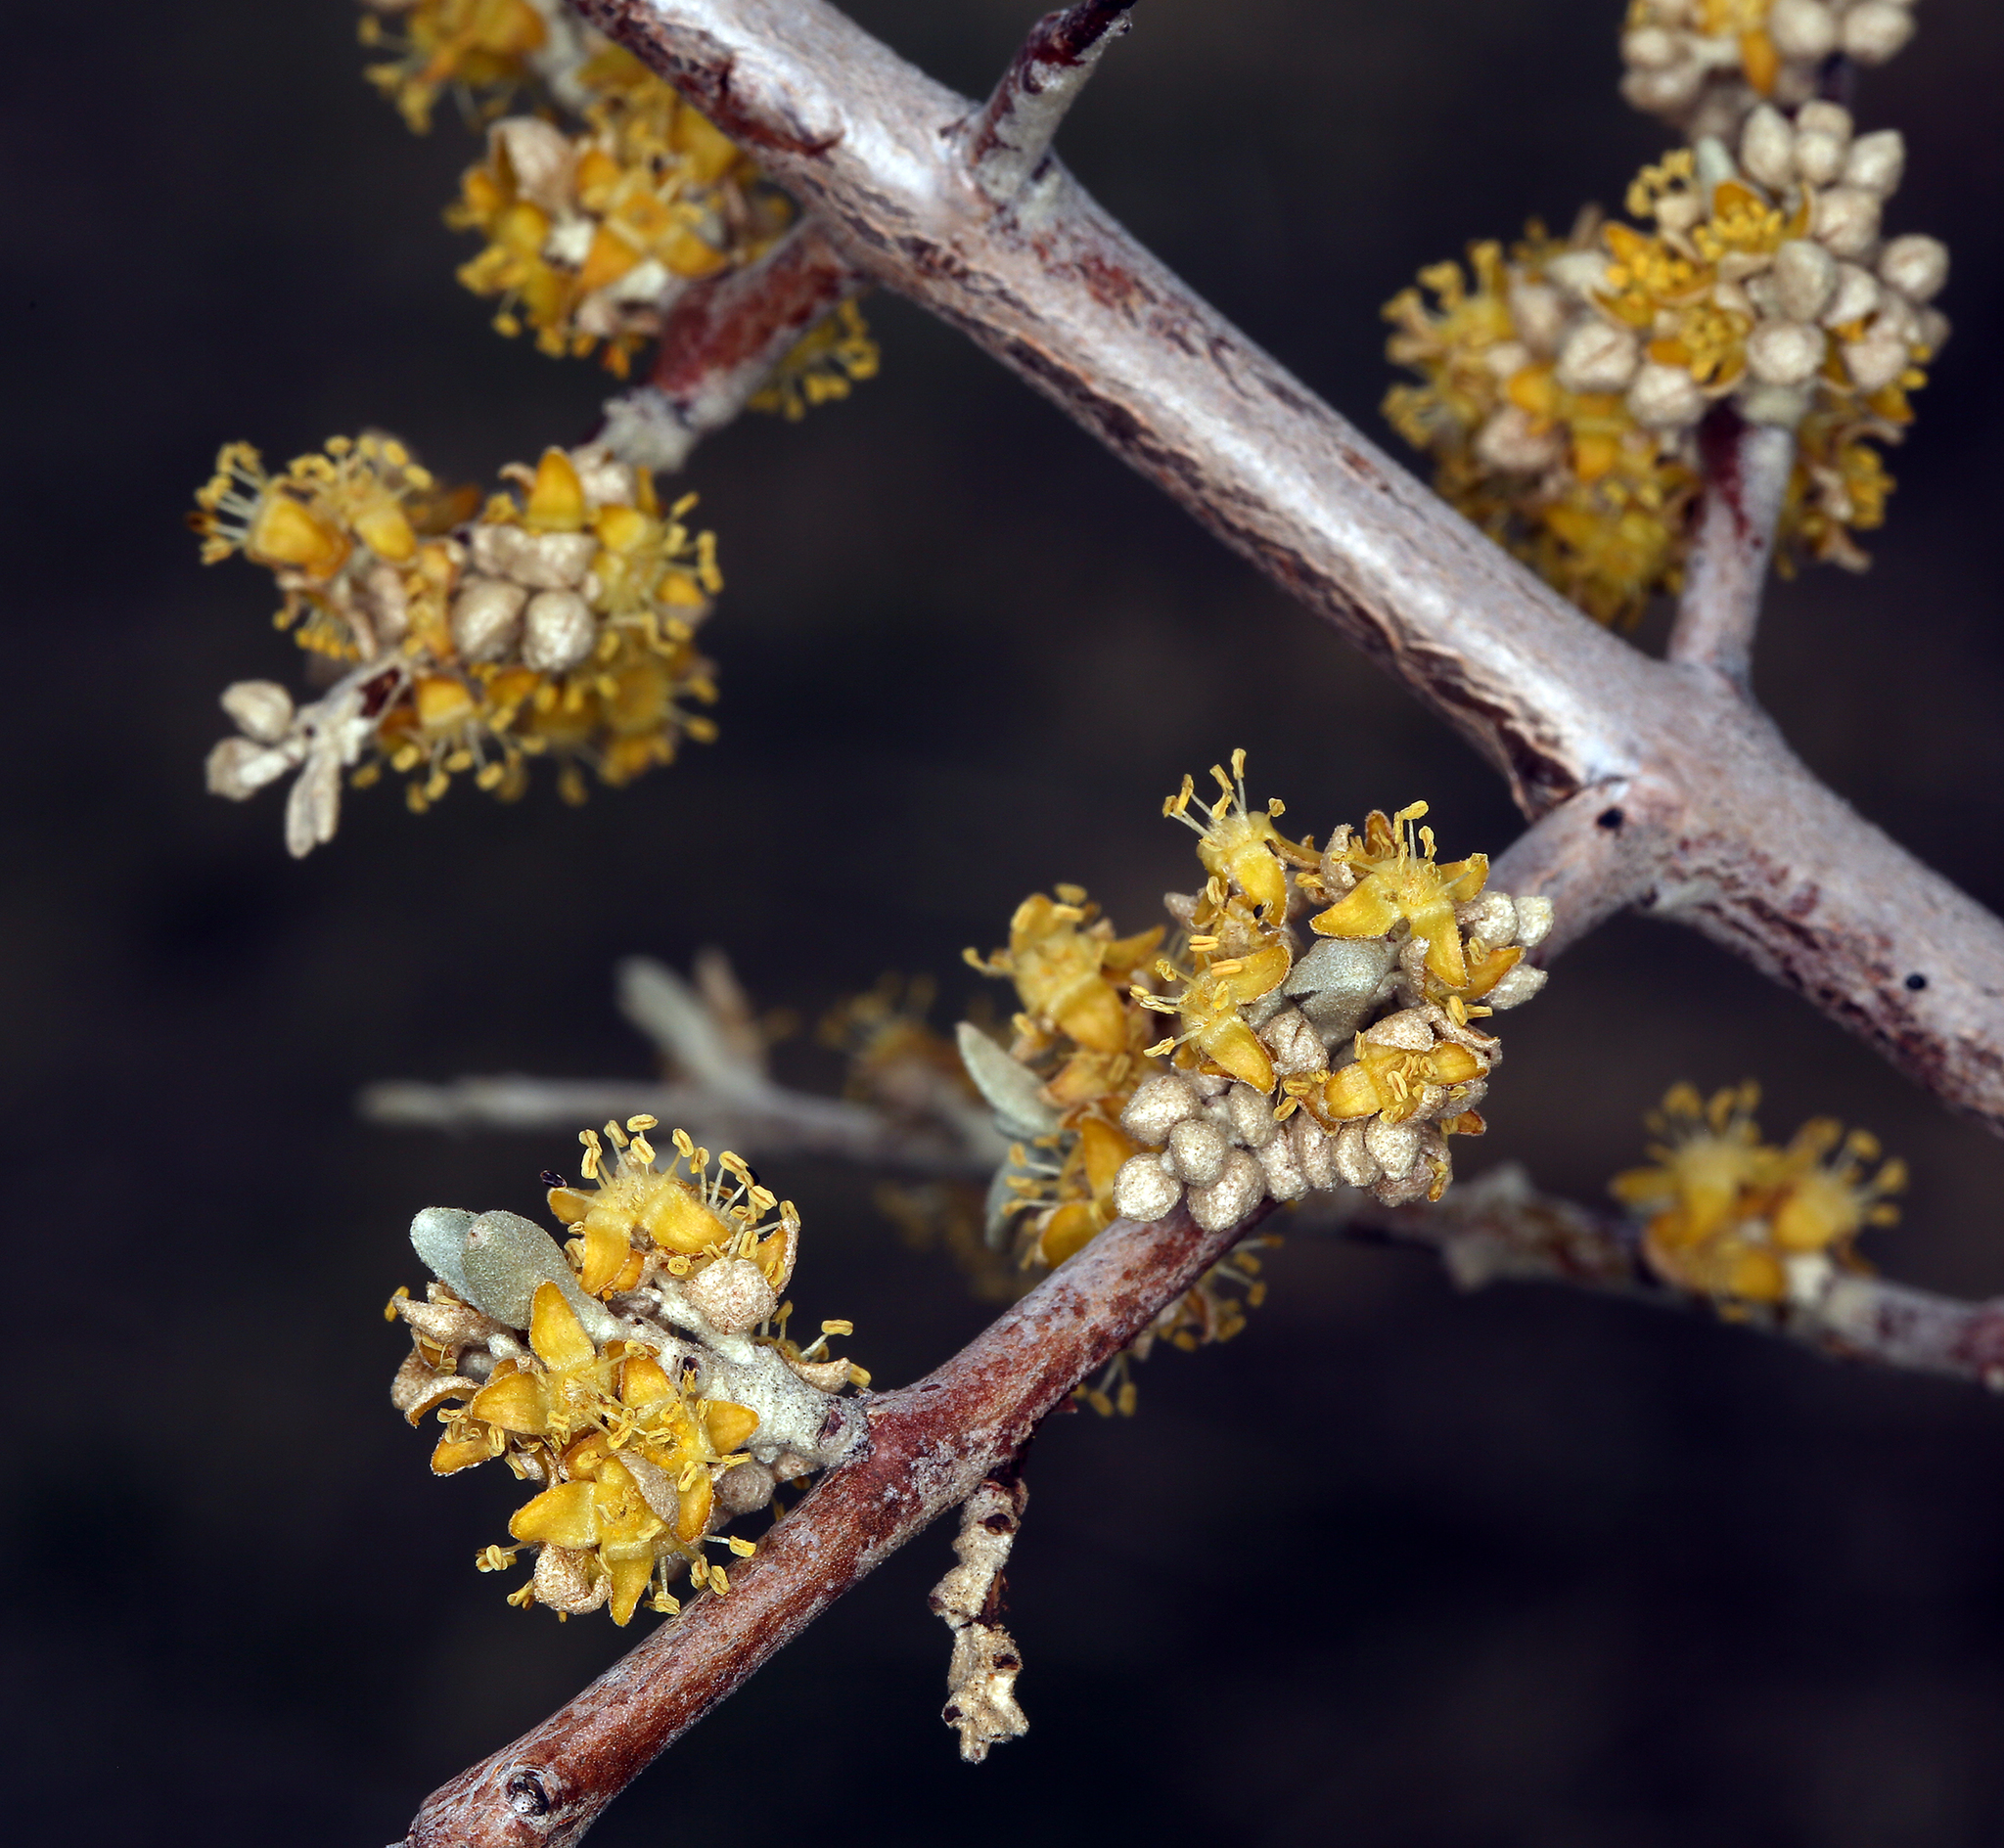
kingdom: Plantae
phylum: Tracheophyta
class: Magnoliopsida
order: Rosales
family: Elaeagnaceae
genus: Shepherdia
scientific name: Shepherdia argentea
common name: Silver buffaloberry
